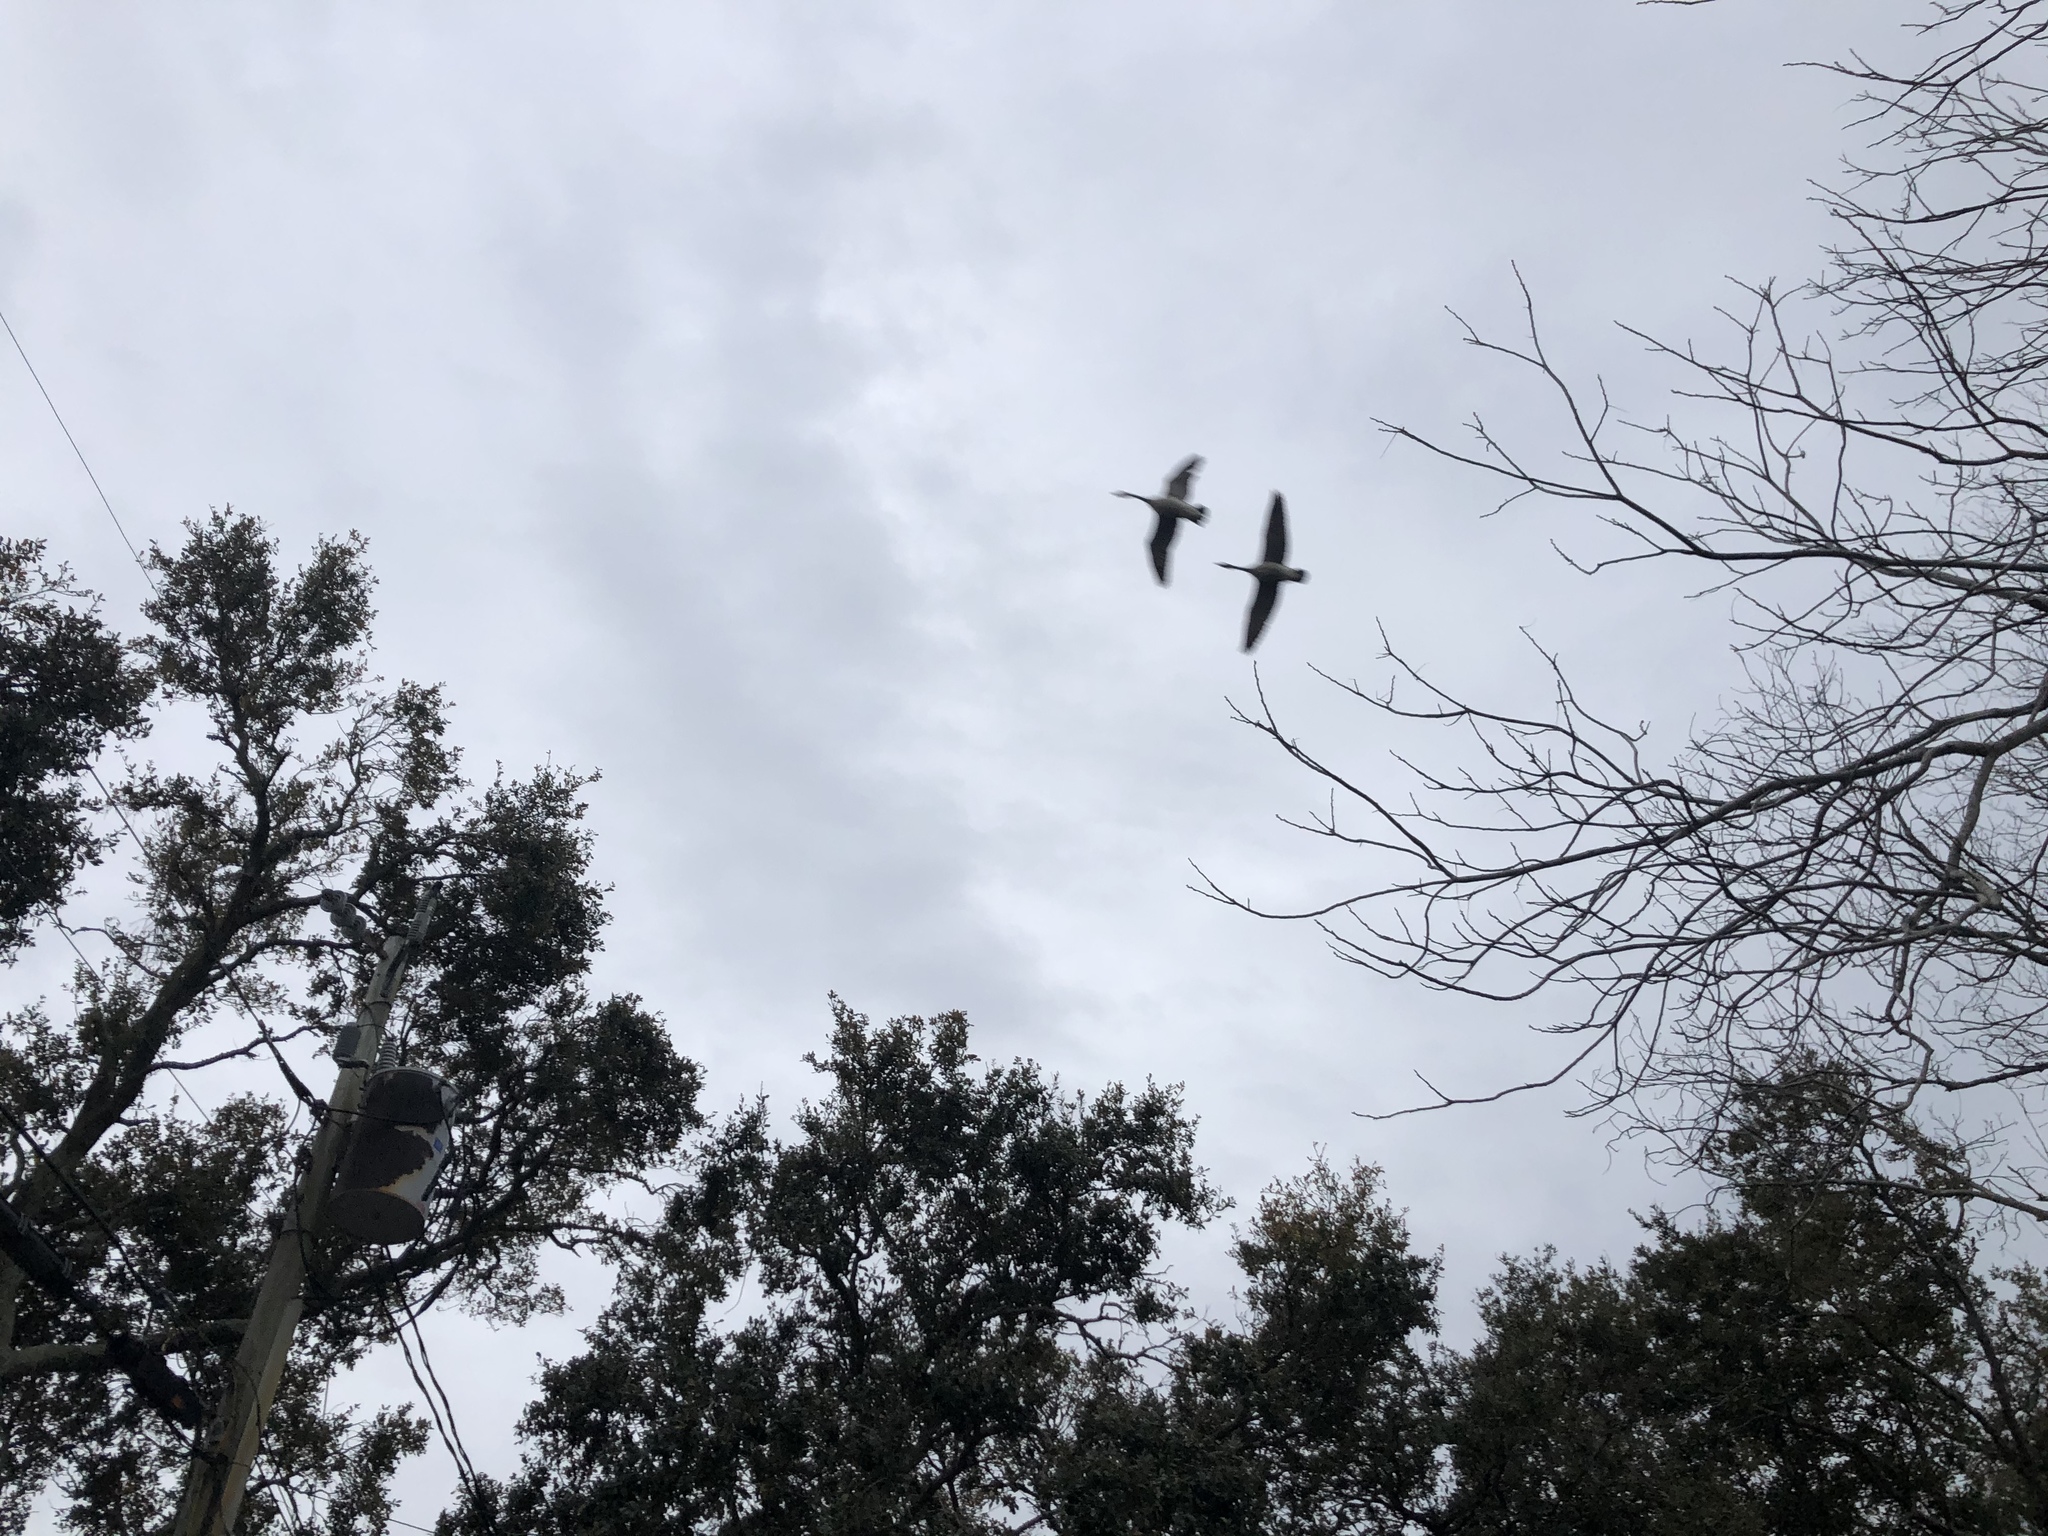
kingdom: Animalia
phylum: Chordata
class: Aves
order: Anseriformes
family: Anatidae
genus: Branta
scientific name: Branta canadensis
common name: Canada goose
